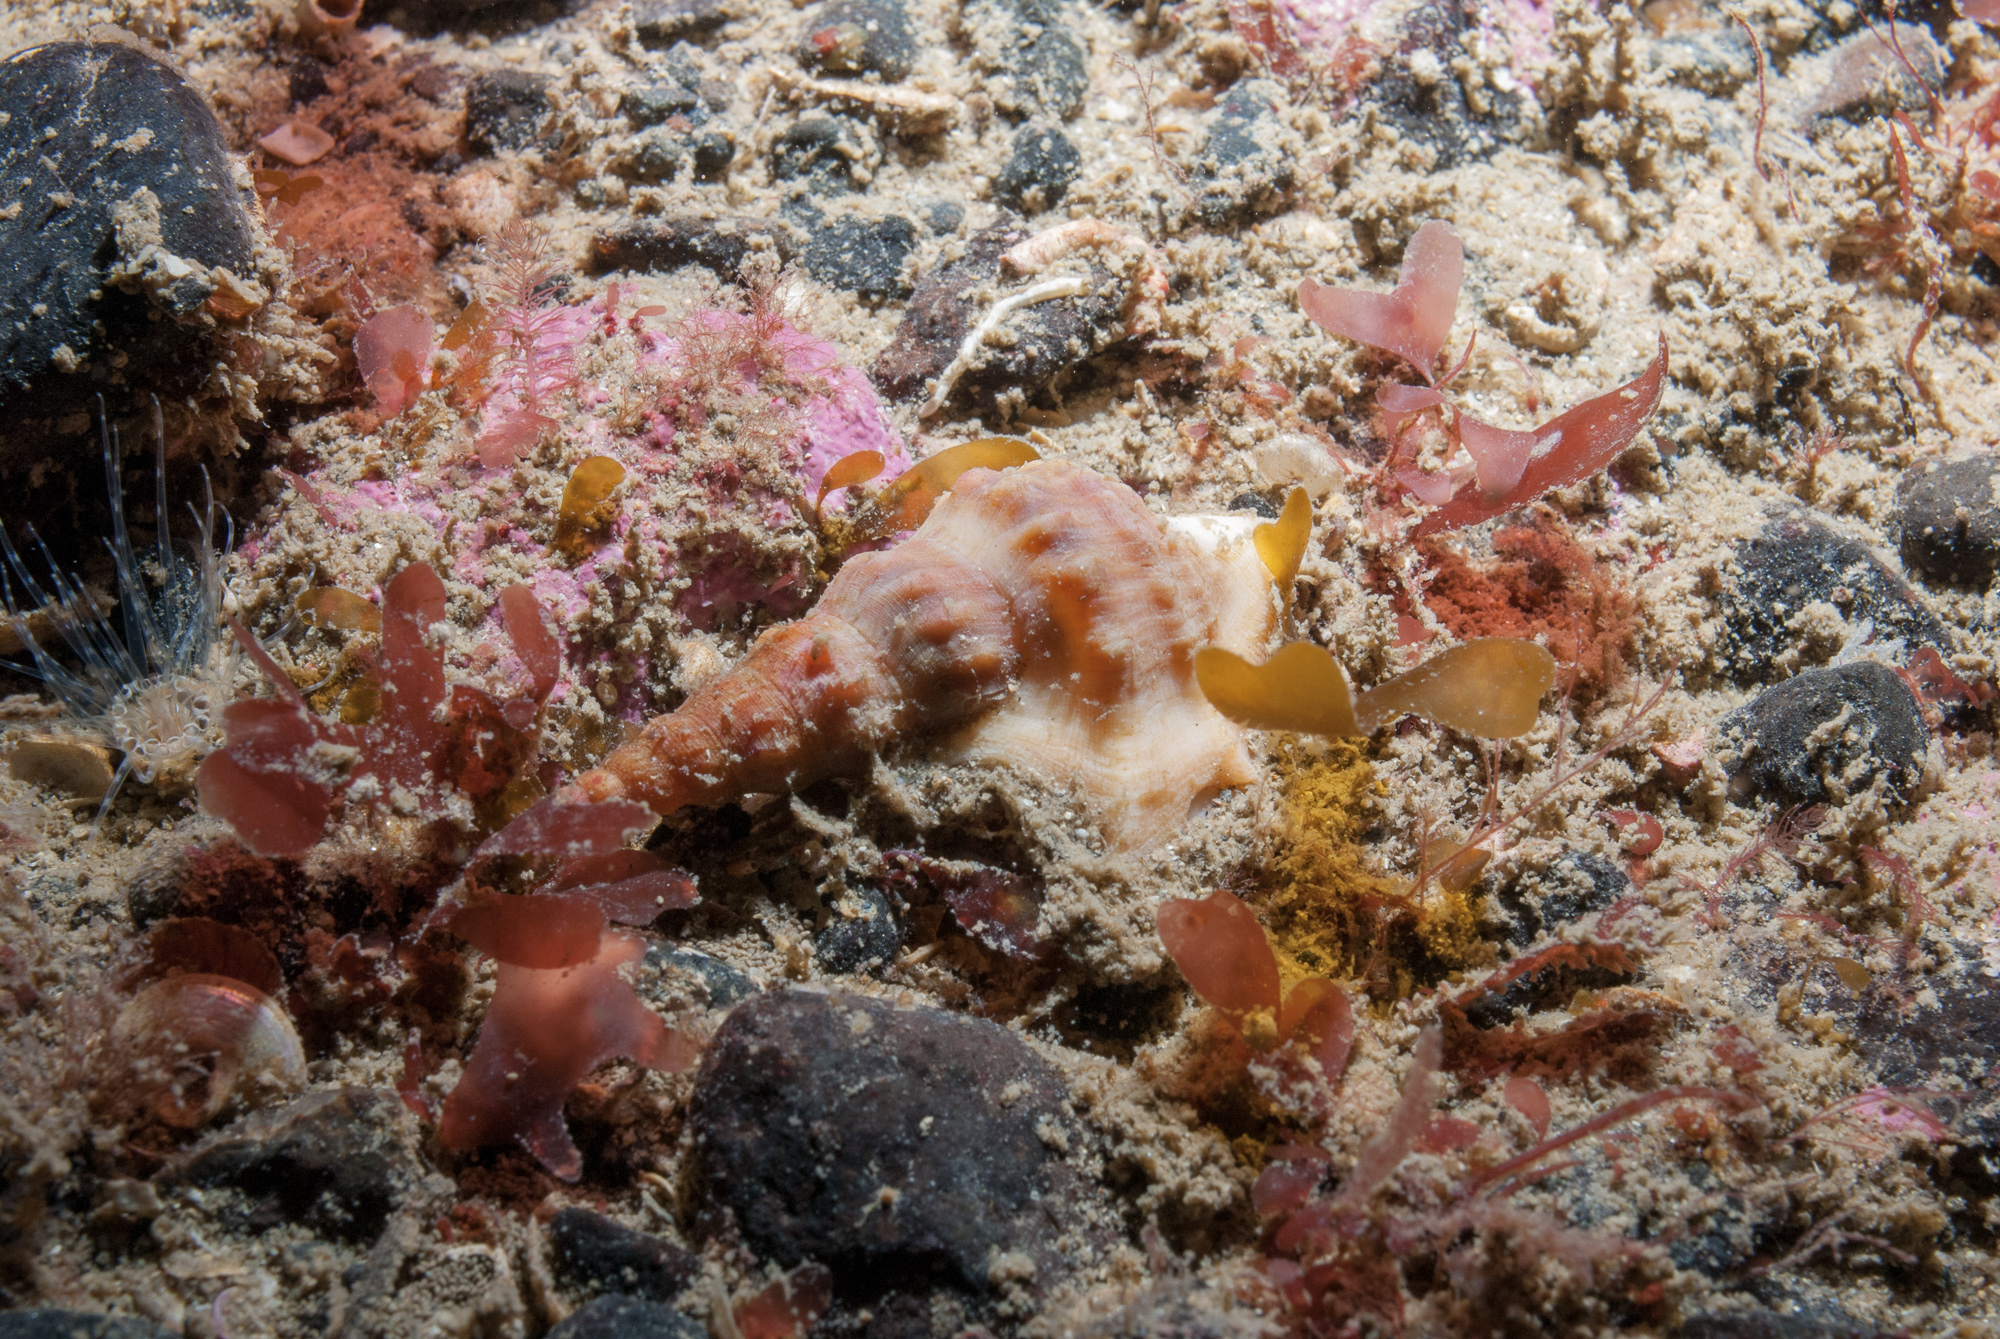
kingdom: Animalia
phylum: Mollusca
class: Gastropoda
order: Littorinimorpha
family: Aporrhaidae
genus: Aporrhais
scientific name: Aporrhais pespelecani
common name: Common pelican’s foot
